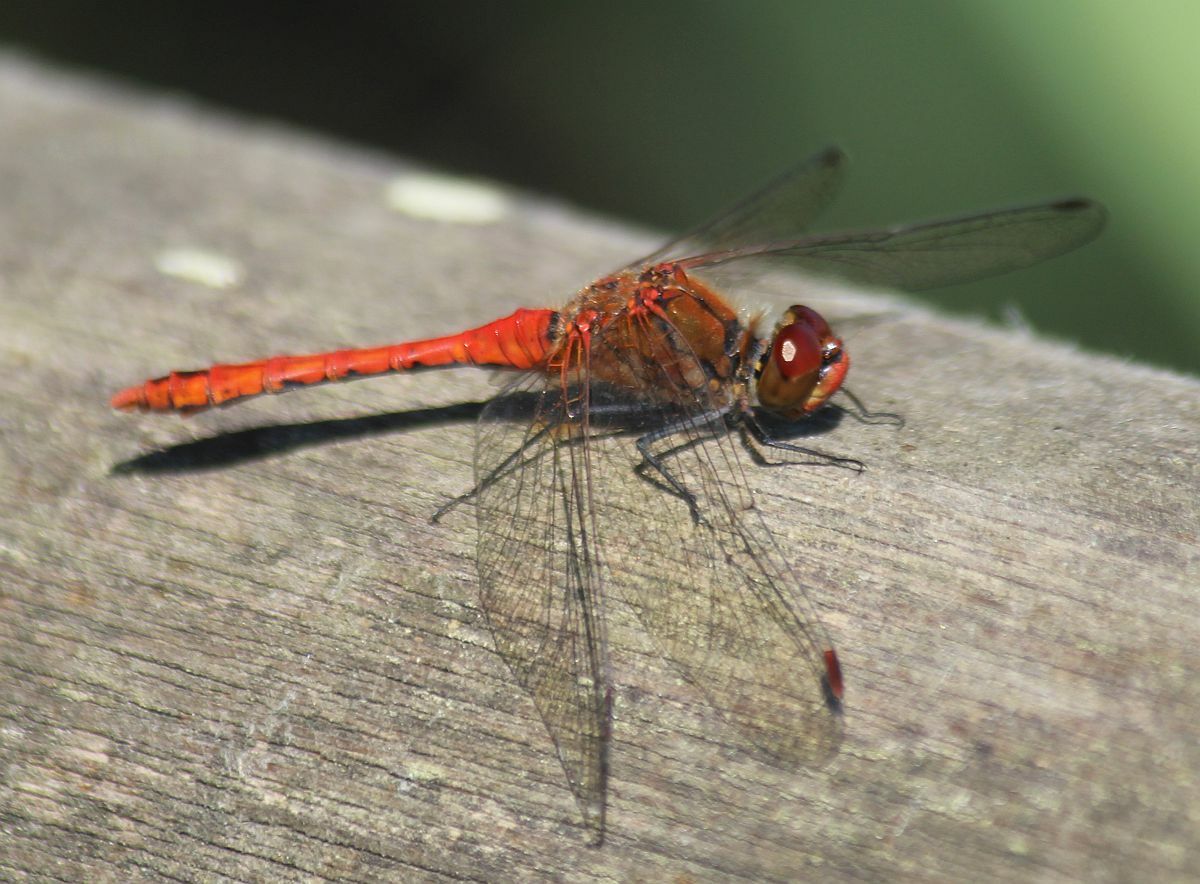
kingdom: Animalia
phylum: Arthropoda
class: Insecta
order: Odonata
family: Libellulidae
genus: Sympetrum
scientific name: Sympetrum sanguineum
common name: Ruddy darter
